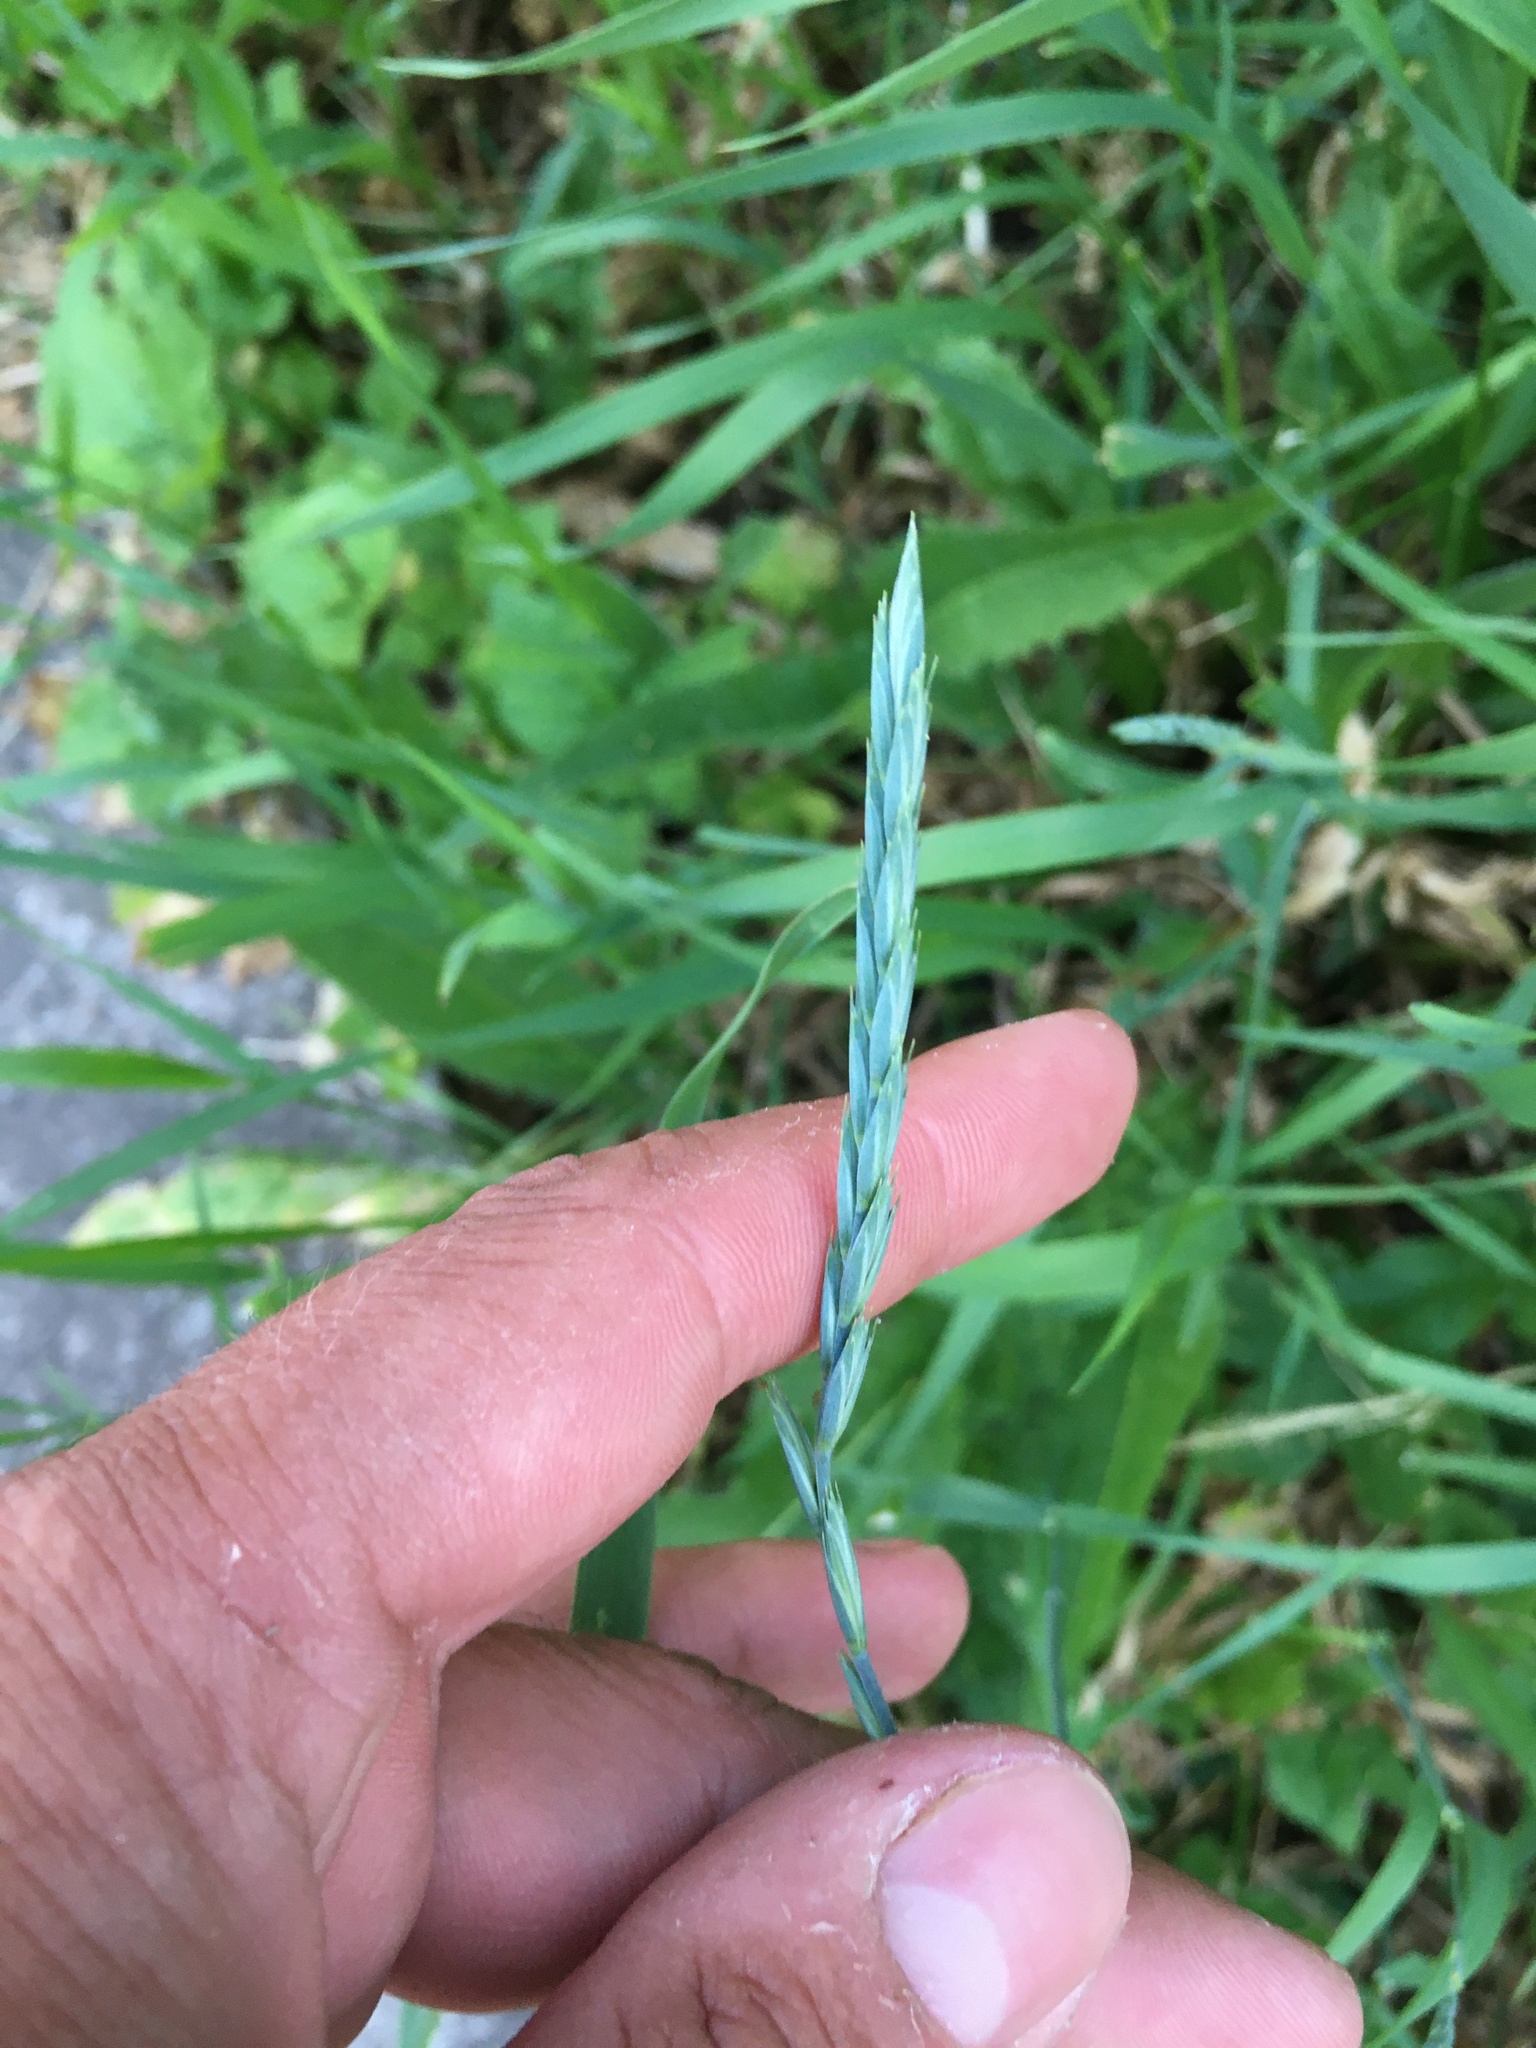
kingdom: Plantae
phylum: Tracheophyta
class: Liliopsida
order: Poales
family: Poaceae
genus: Elymus
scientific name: Elymus repens
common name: Quackgrass
